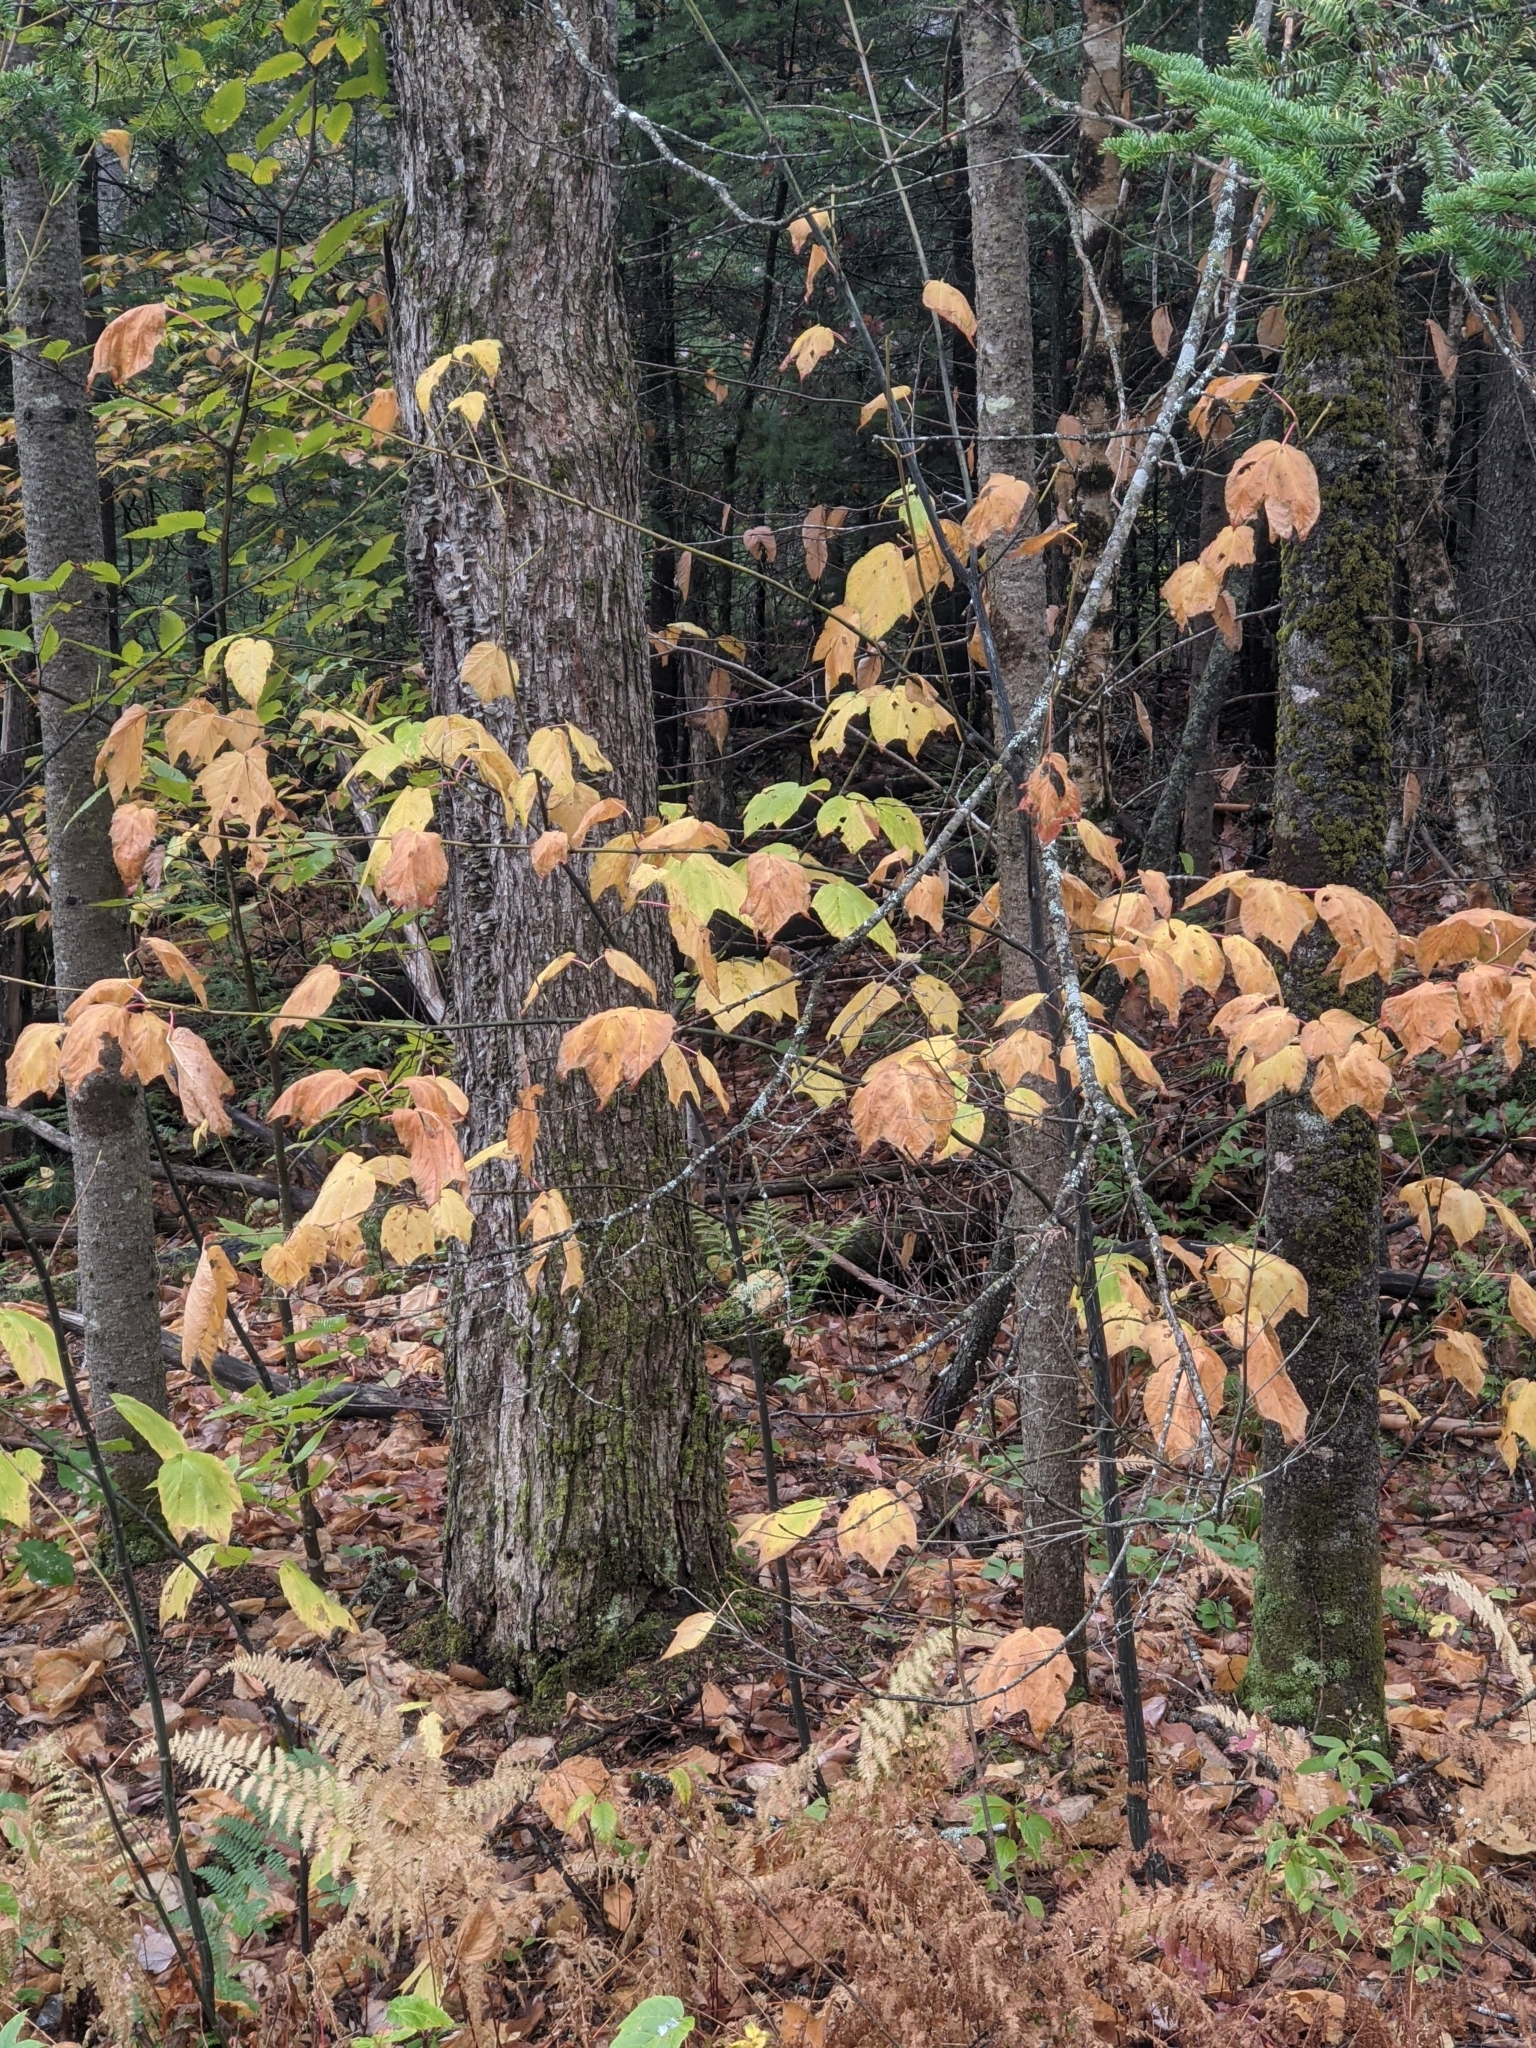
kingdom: Plantae
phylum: Tracheophyta
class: Magnoliopsida
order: Sapindales
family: Sapindaceae
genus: Acer
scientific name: Acer pensylvanicum
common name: Moosewood
